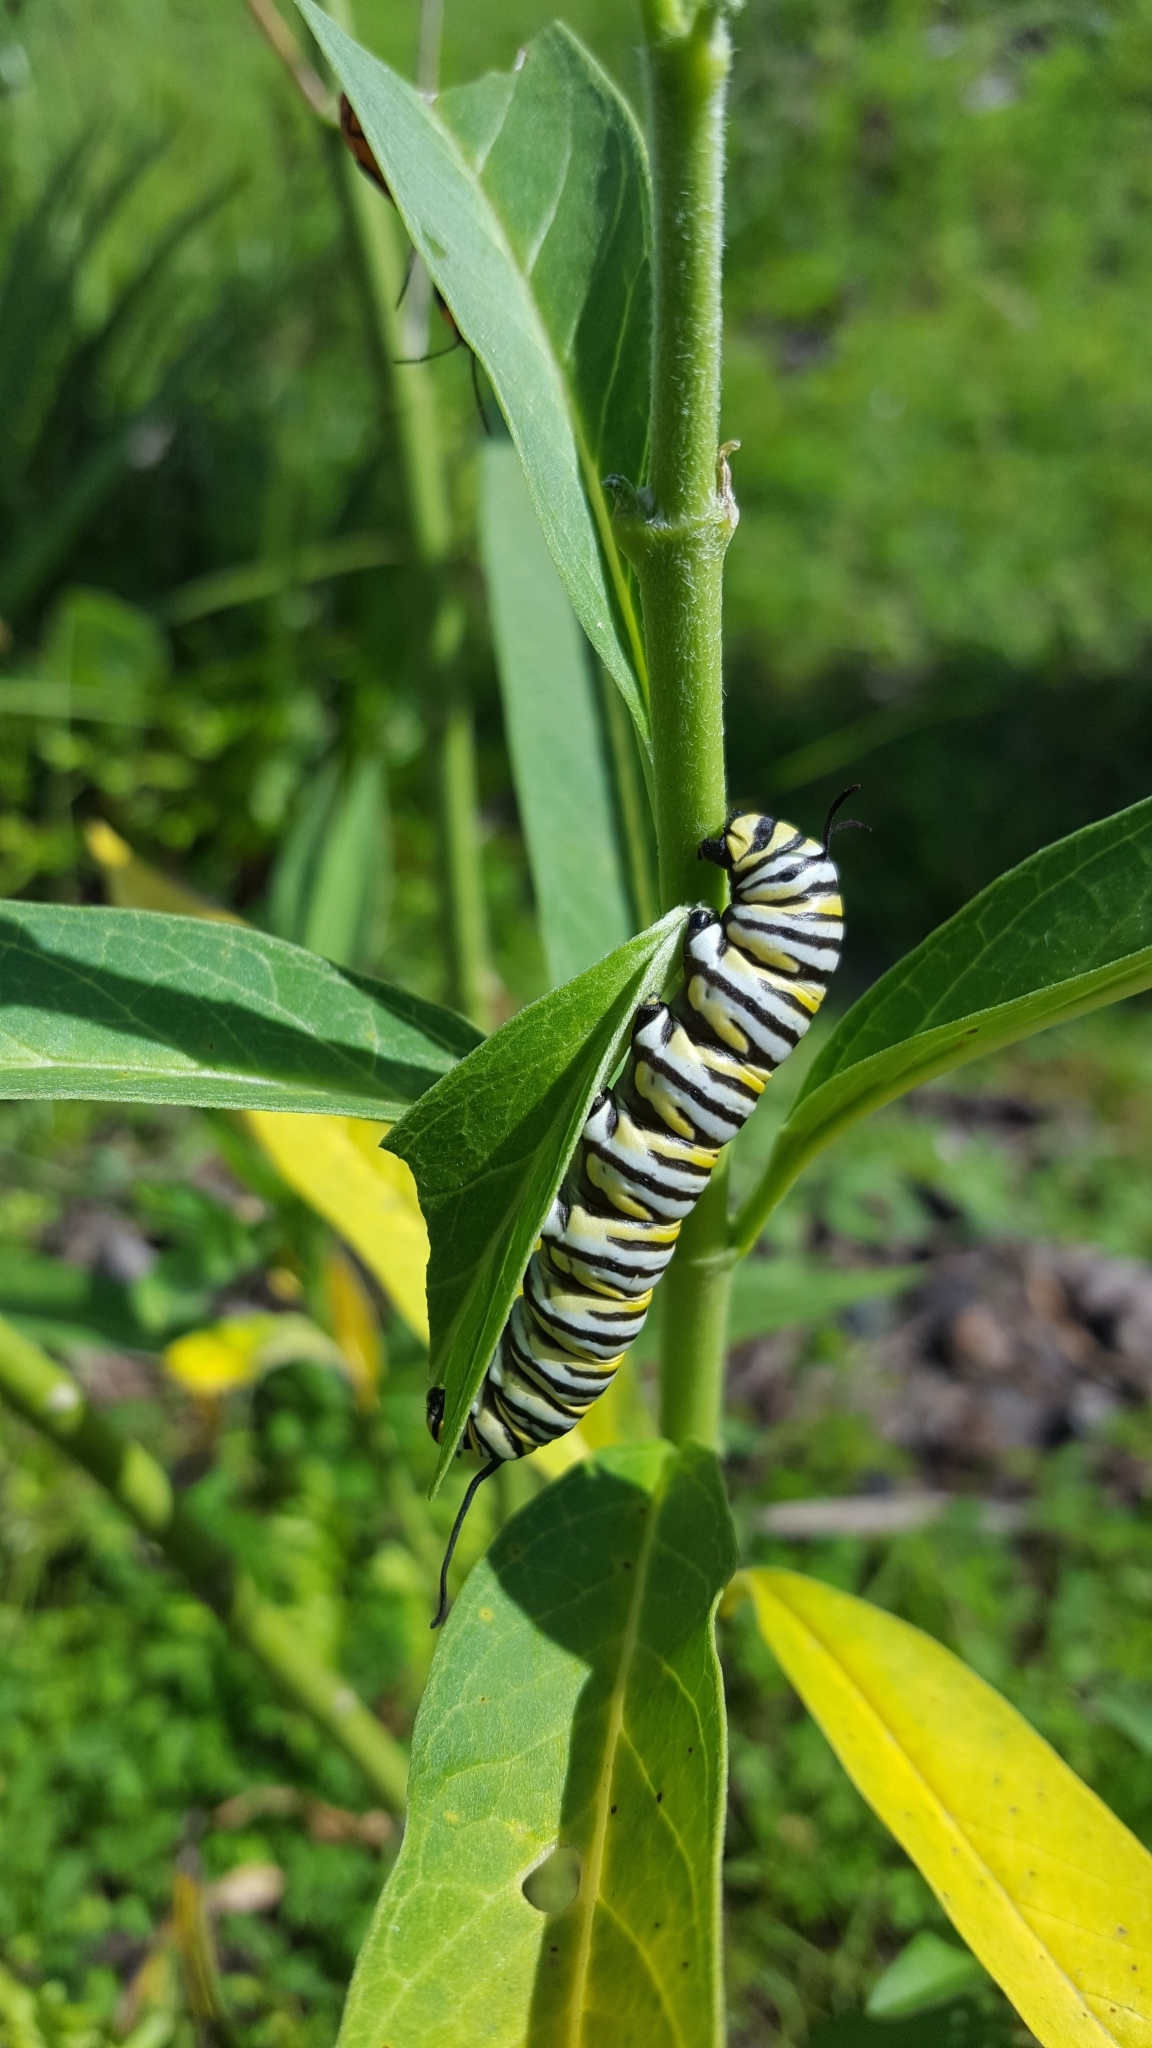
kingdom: Animalia
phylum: Arthropoda
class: Insecta
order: Lepidoptera
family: Nymphalidae
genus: Danaus
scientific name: Danaus plexippus
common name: Monarch
